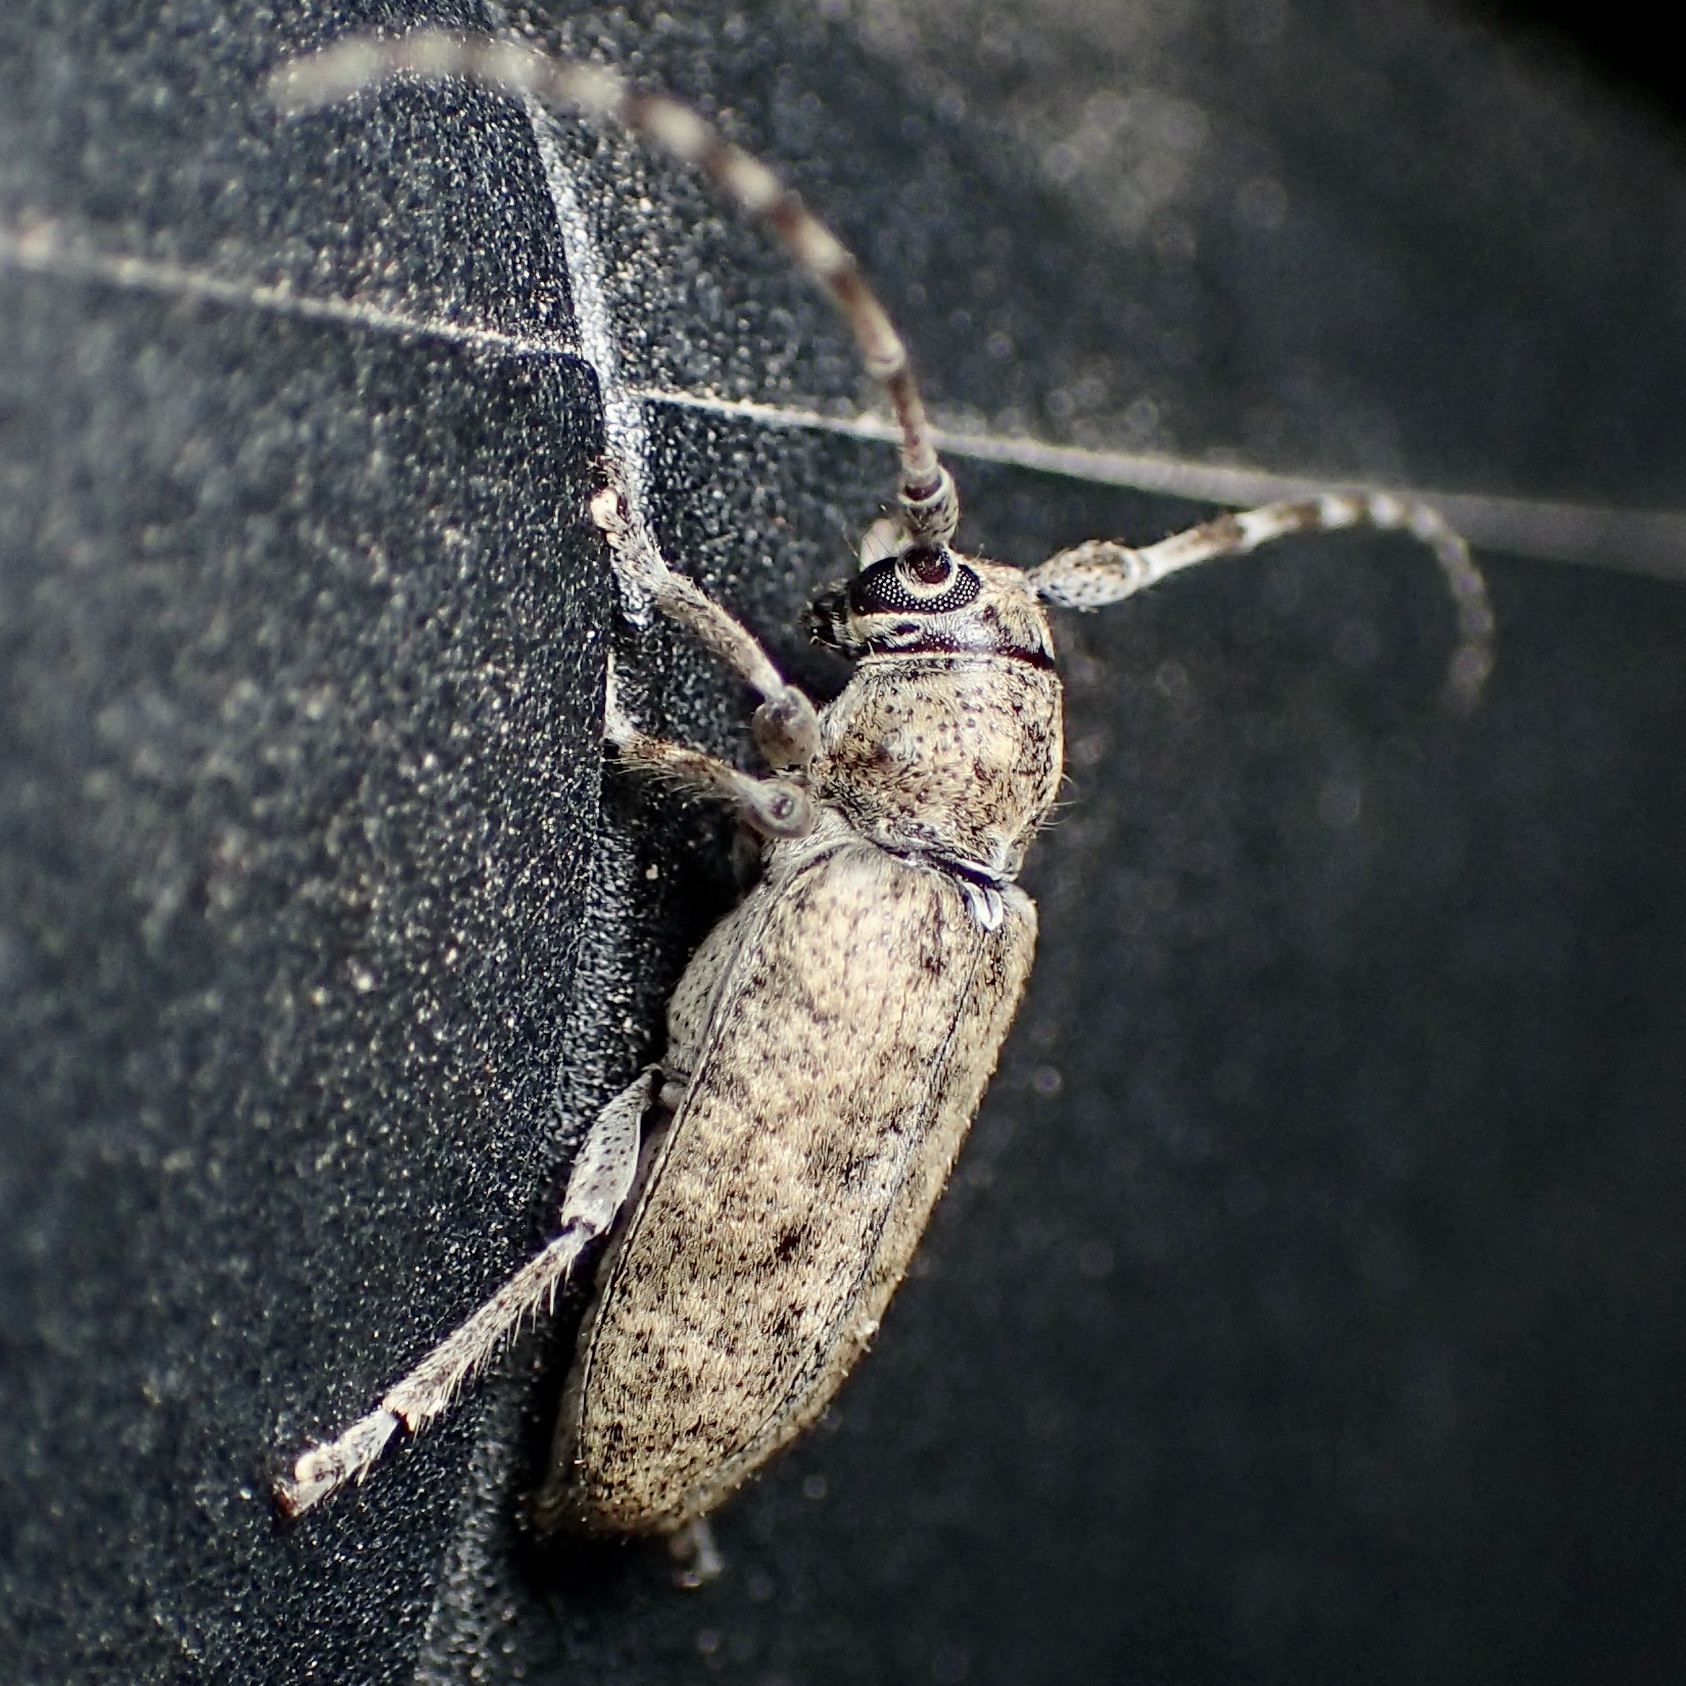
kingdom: Animalia
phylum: Arthropoda
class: Insecta
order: Coleoptera
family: Cerambycidae
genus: Estoloides
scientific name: Estoloides sordida
